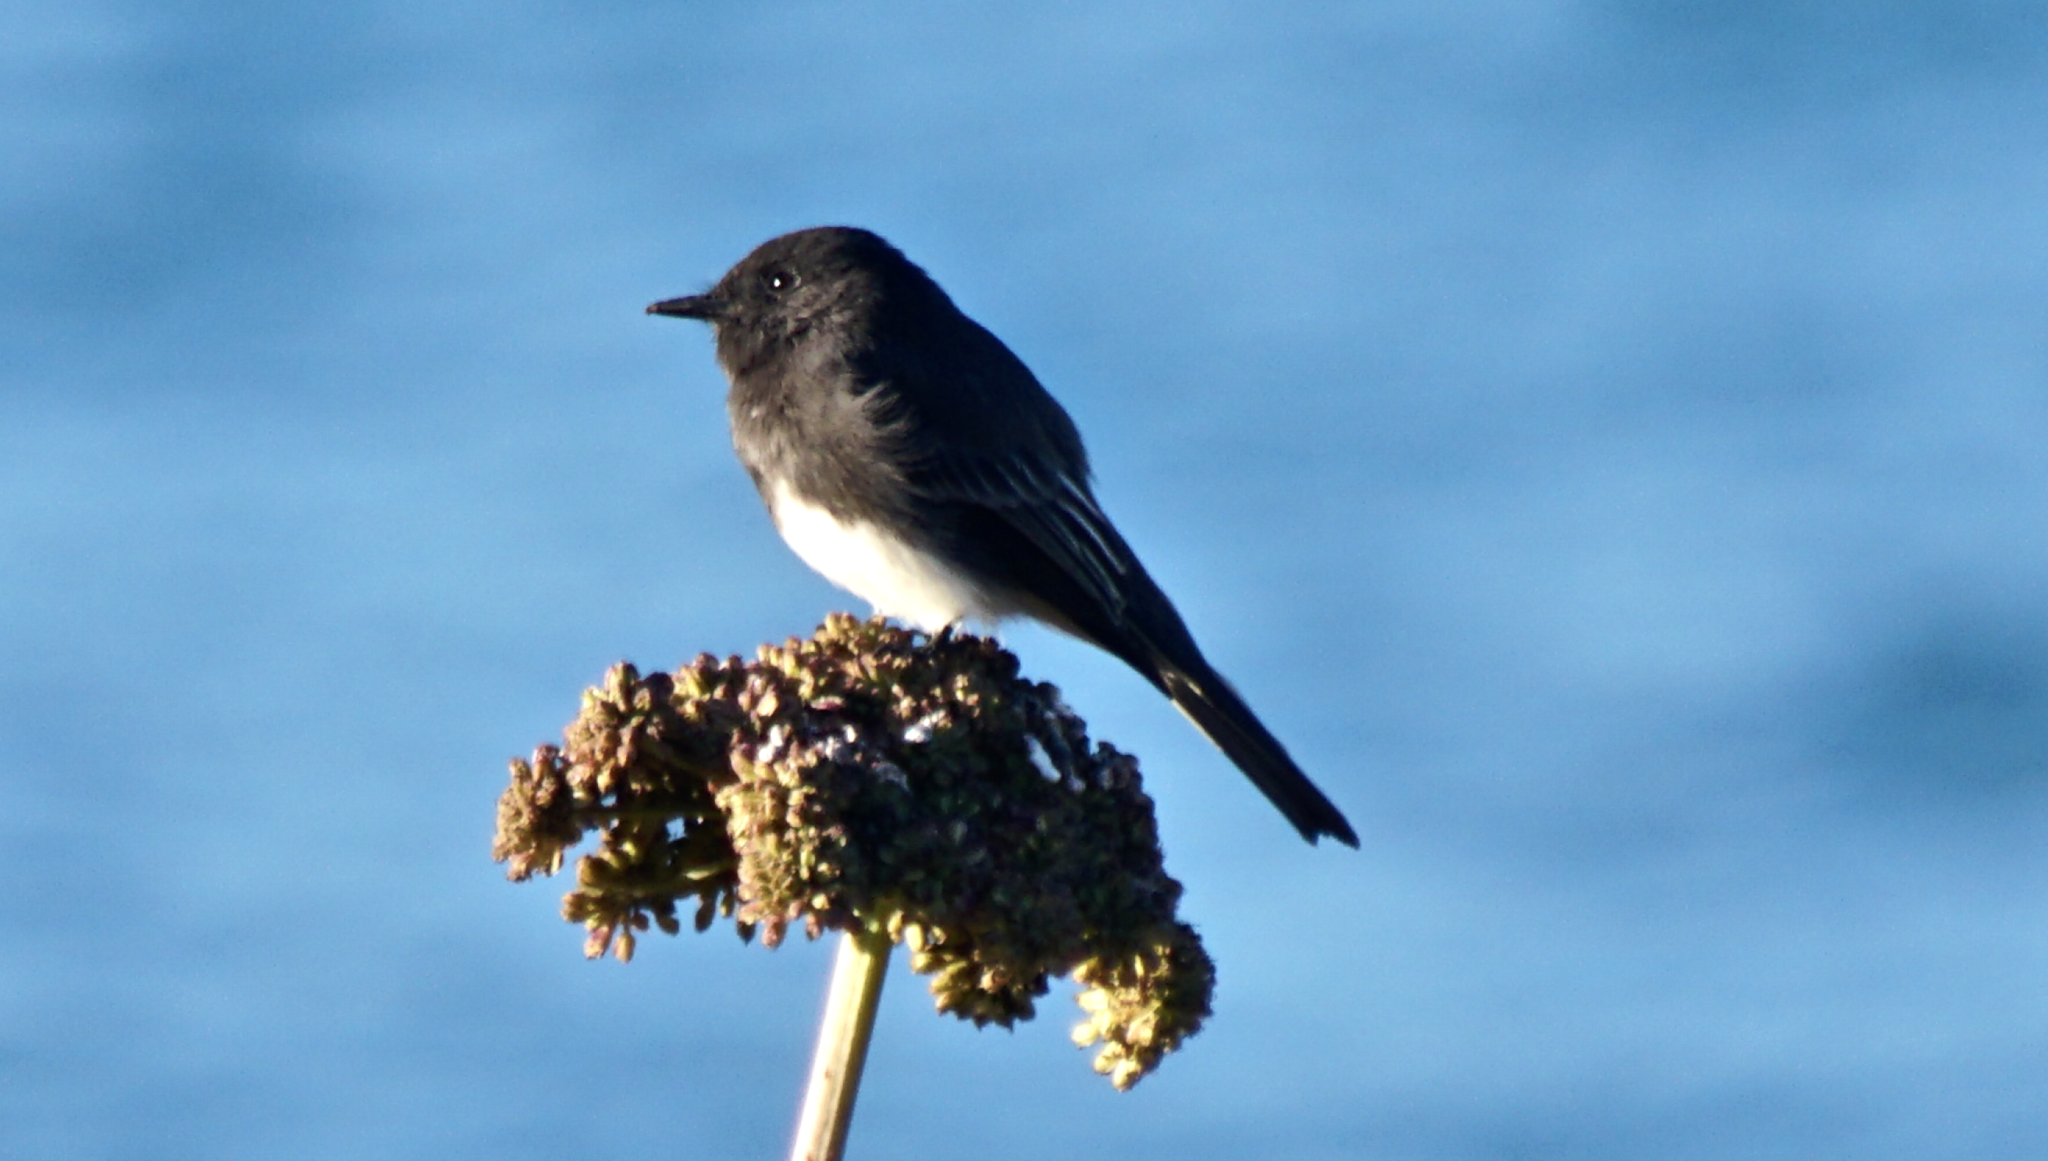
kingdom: Animalia
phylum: Chordata
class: Aves
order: Passeriformes
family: Tyrannidae
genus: Sayornis
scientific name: Sayornis nigricans
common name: Black phoebe
